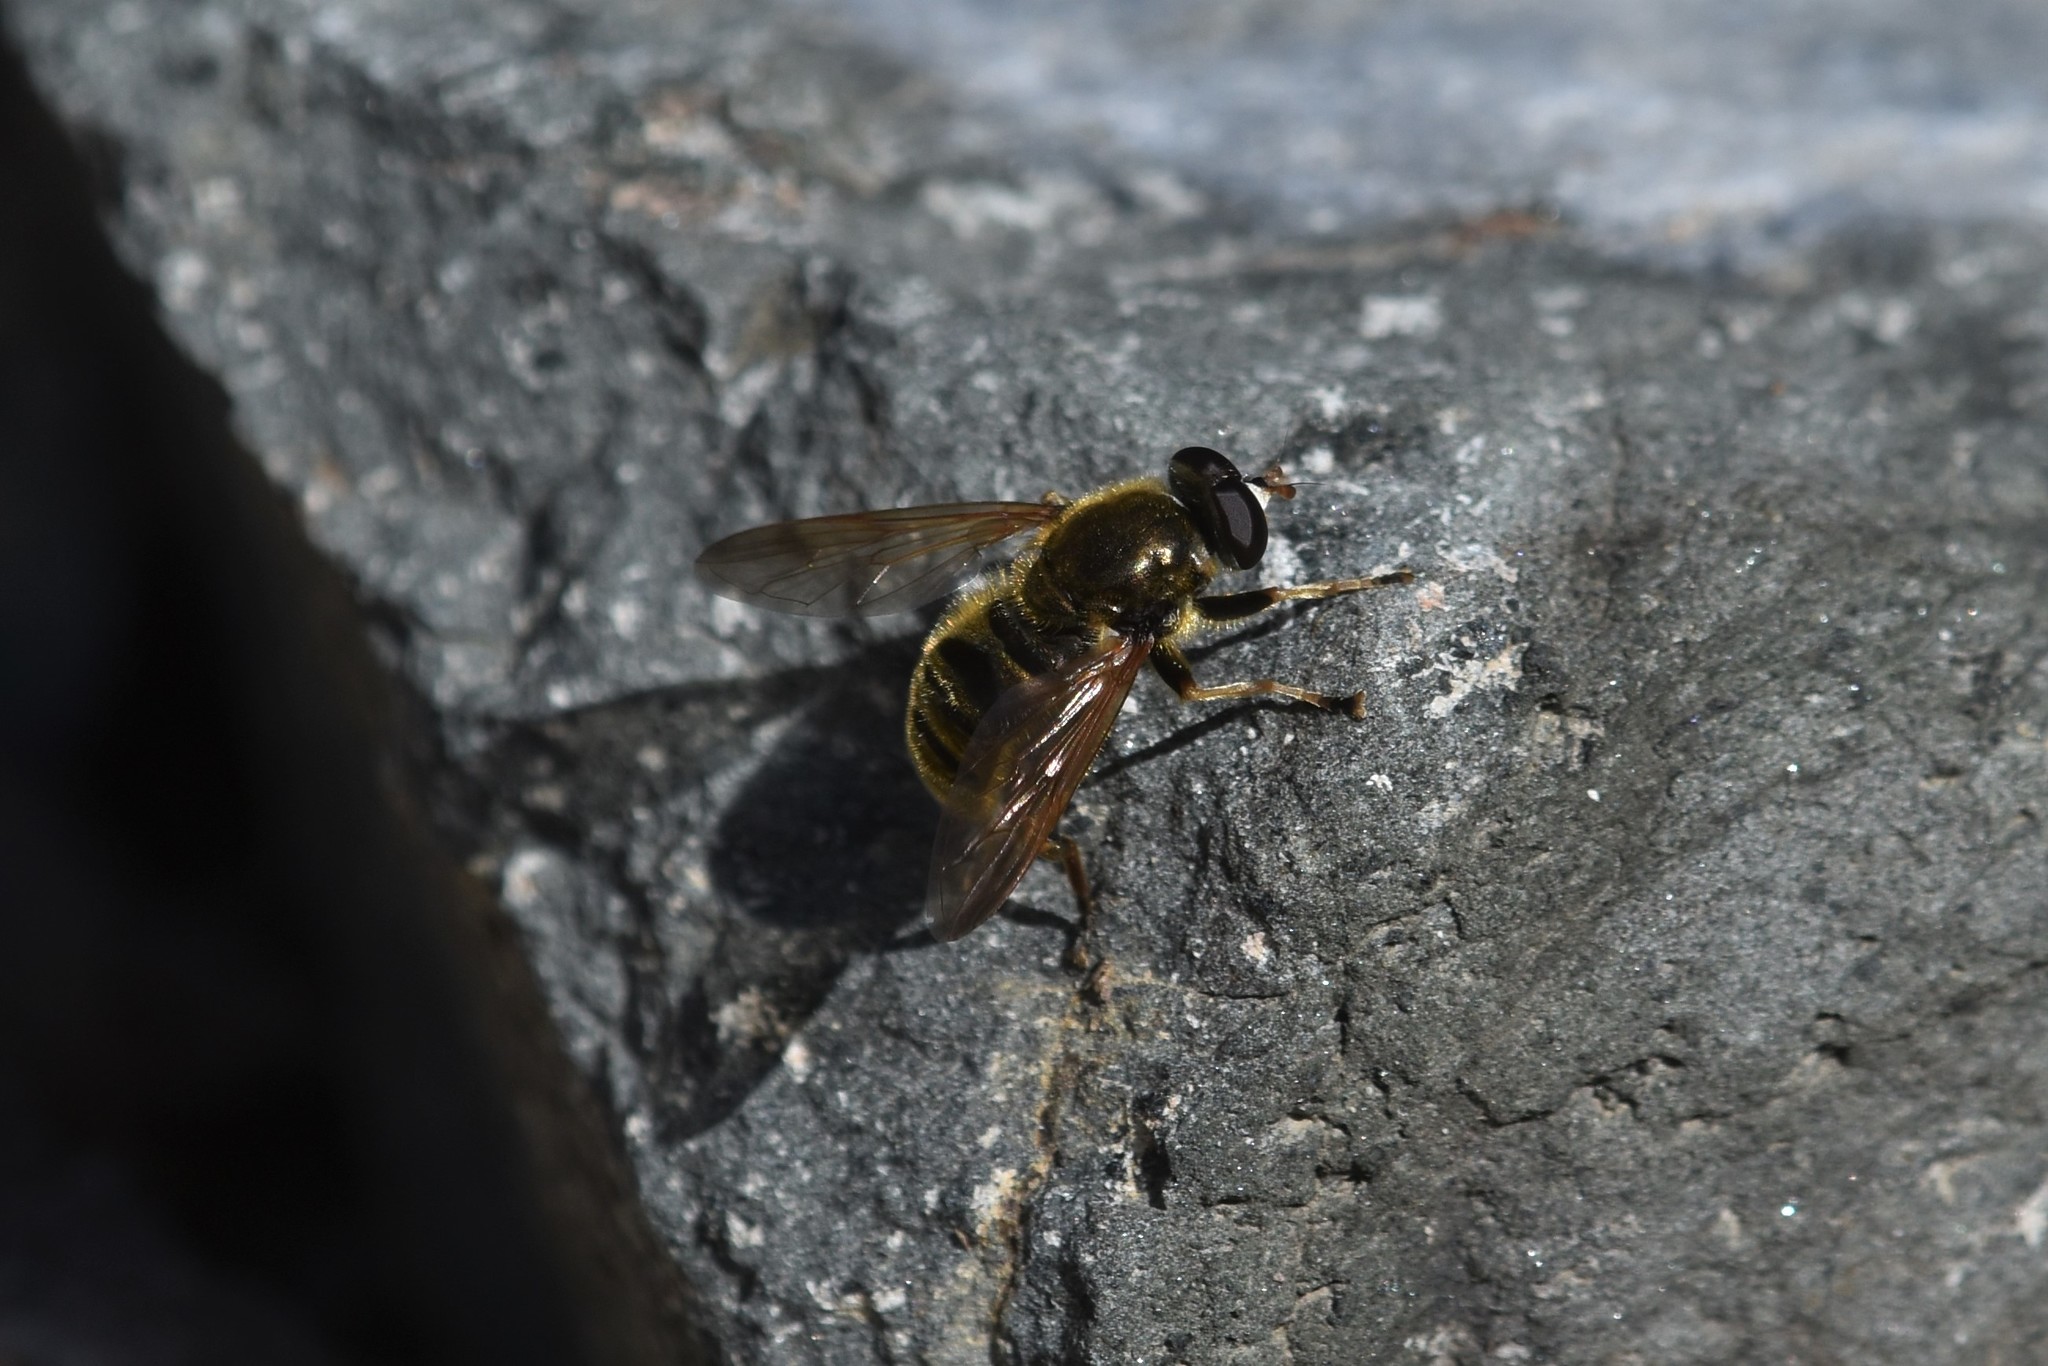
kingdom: Animalia
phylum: Arthropoda
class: Insecta
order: Diptera
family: Syrphidae
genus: Hadromyia
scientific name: Hadromyia crawfordi
